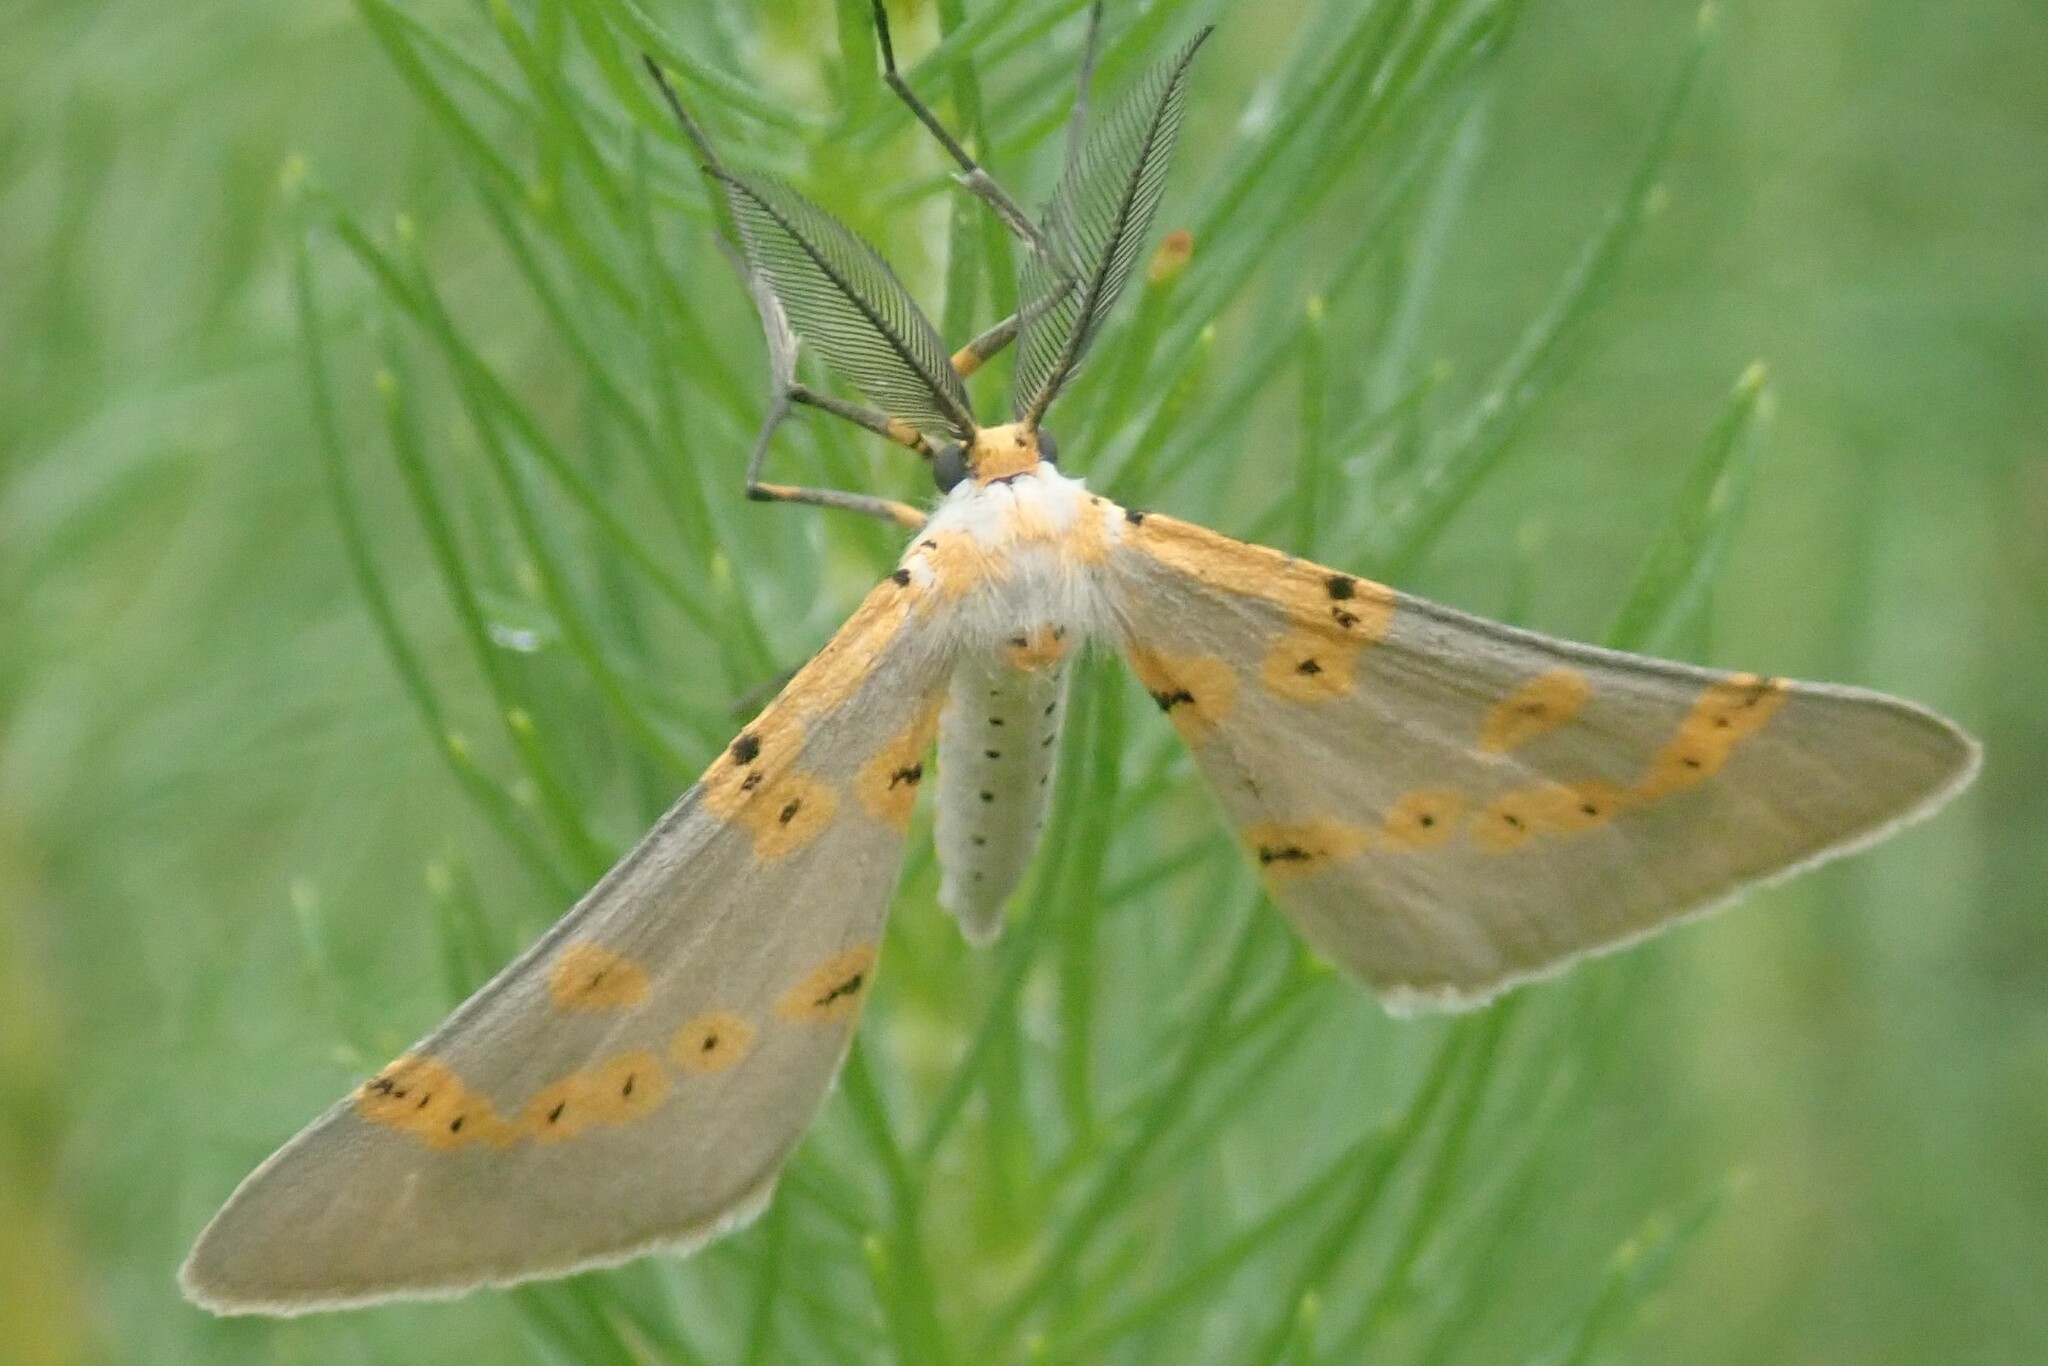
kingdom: Animalia
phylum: Arthropoda
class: Insecta
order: Lepidoptera
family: Geometridae
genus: Nassinia
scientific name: Nassinia caffraria
